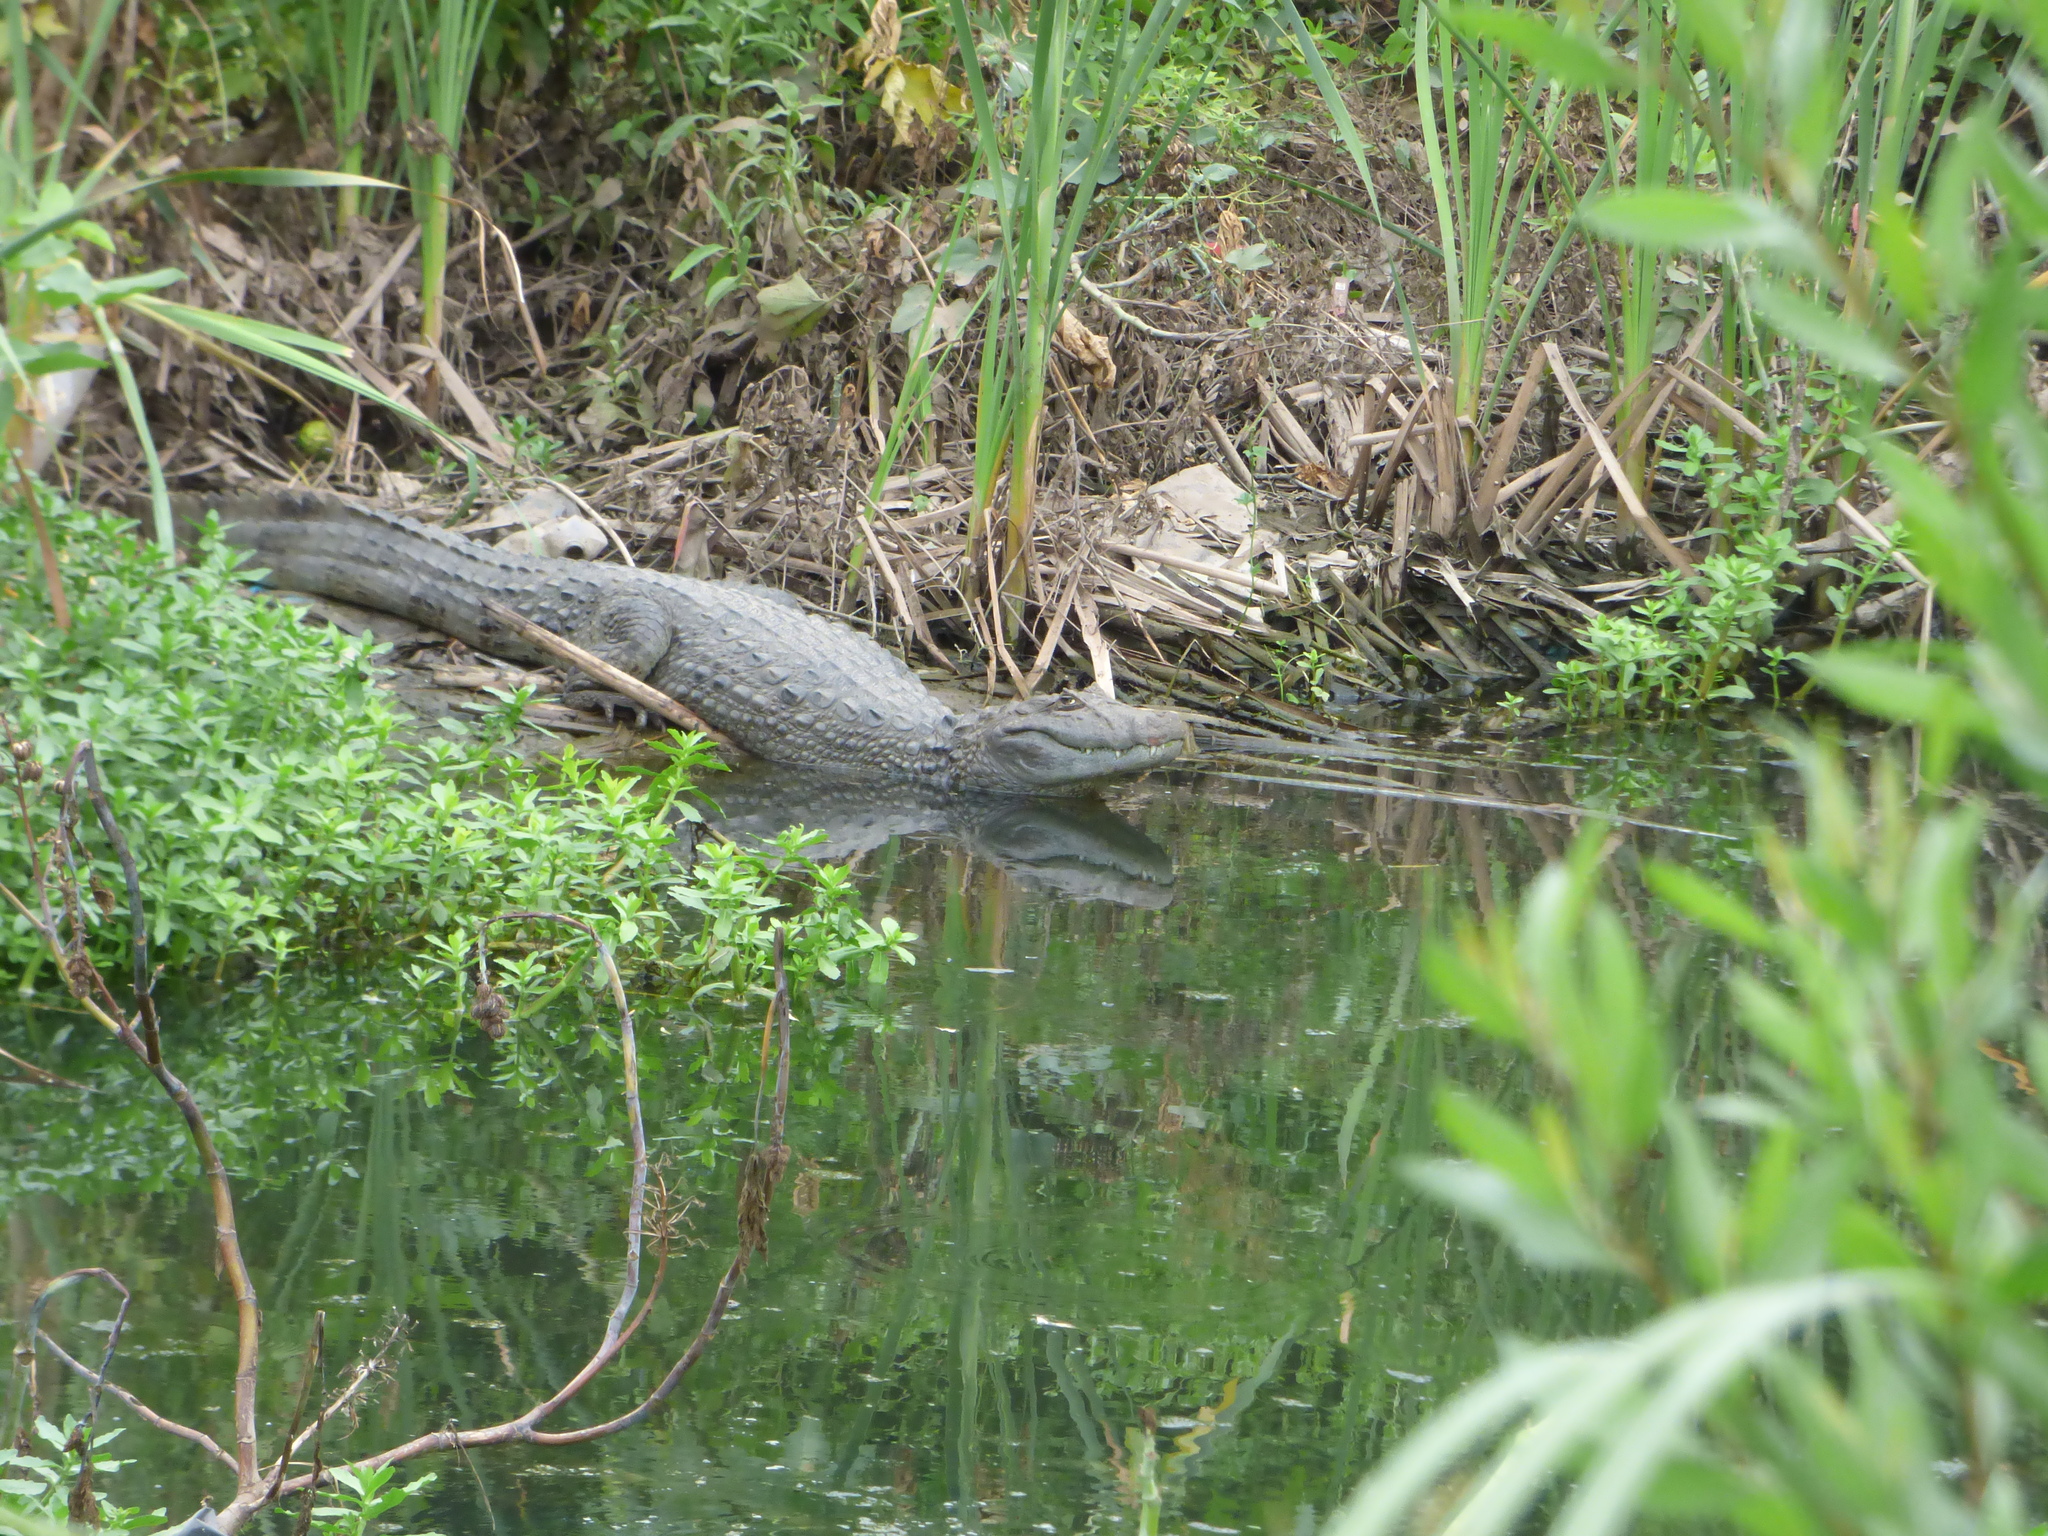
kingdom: Animalia
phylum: Chordata
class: Crocodylia
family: Alligatoridae
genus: Caiman
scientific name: Caiman latirostris
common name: Broad-snouted caiman
